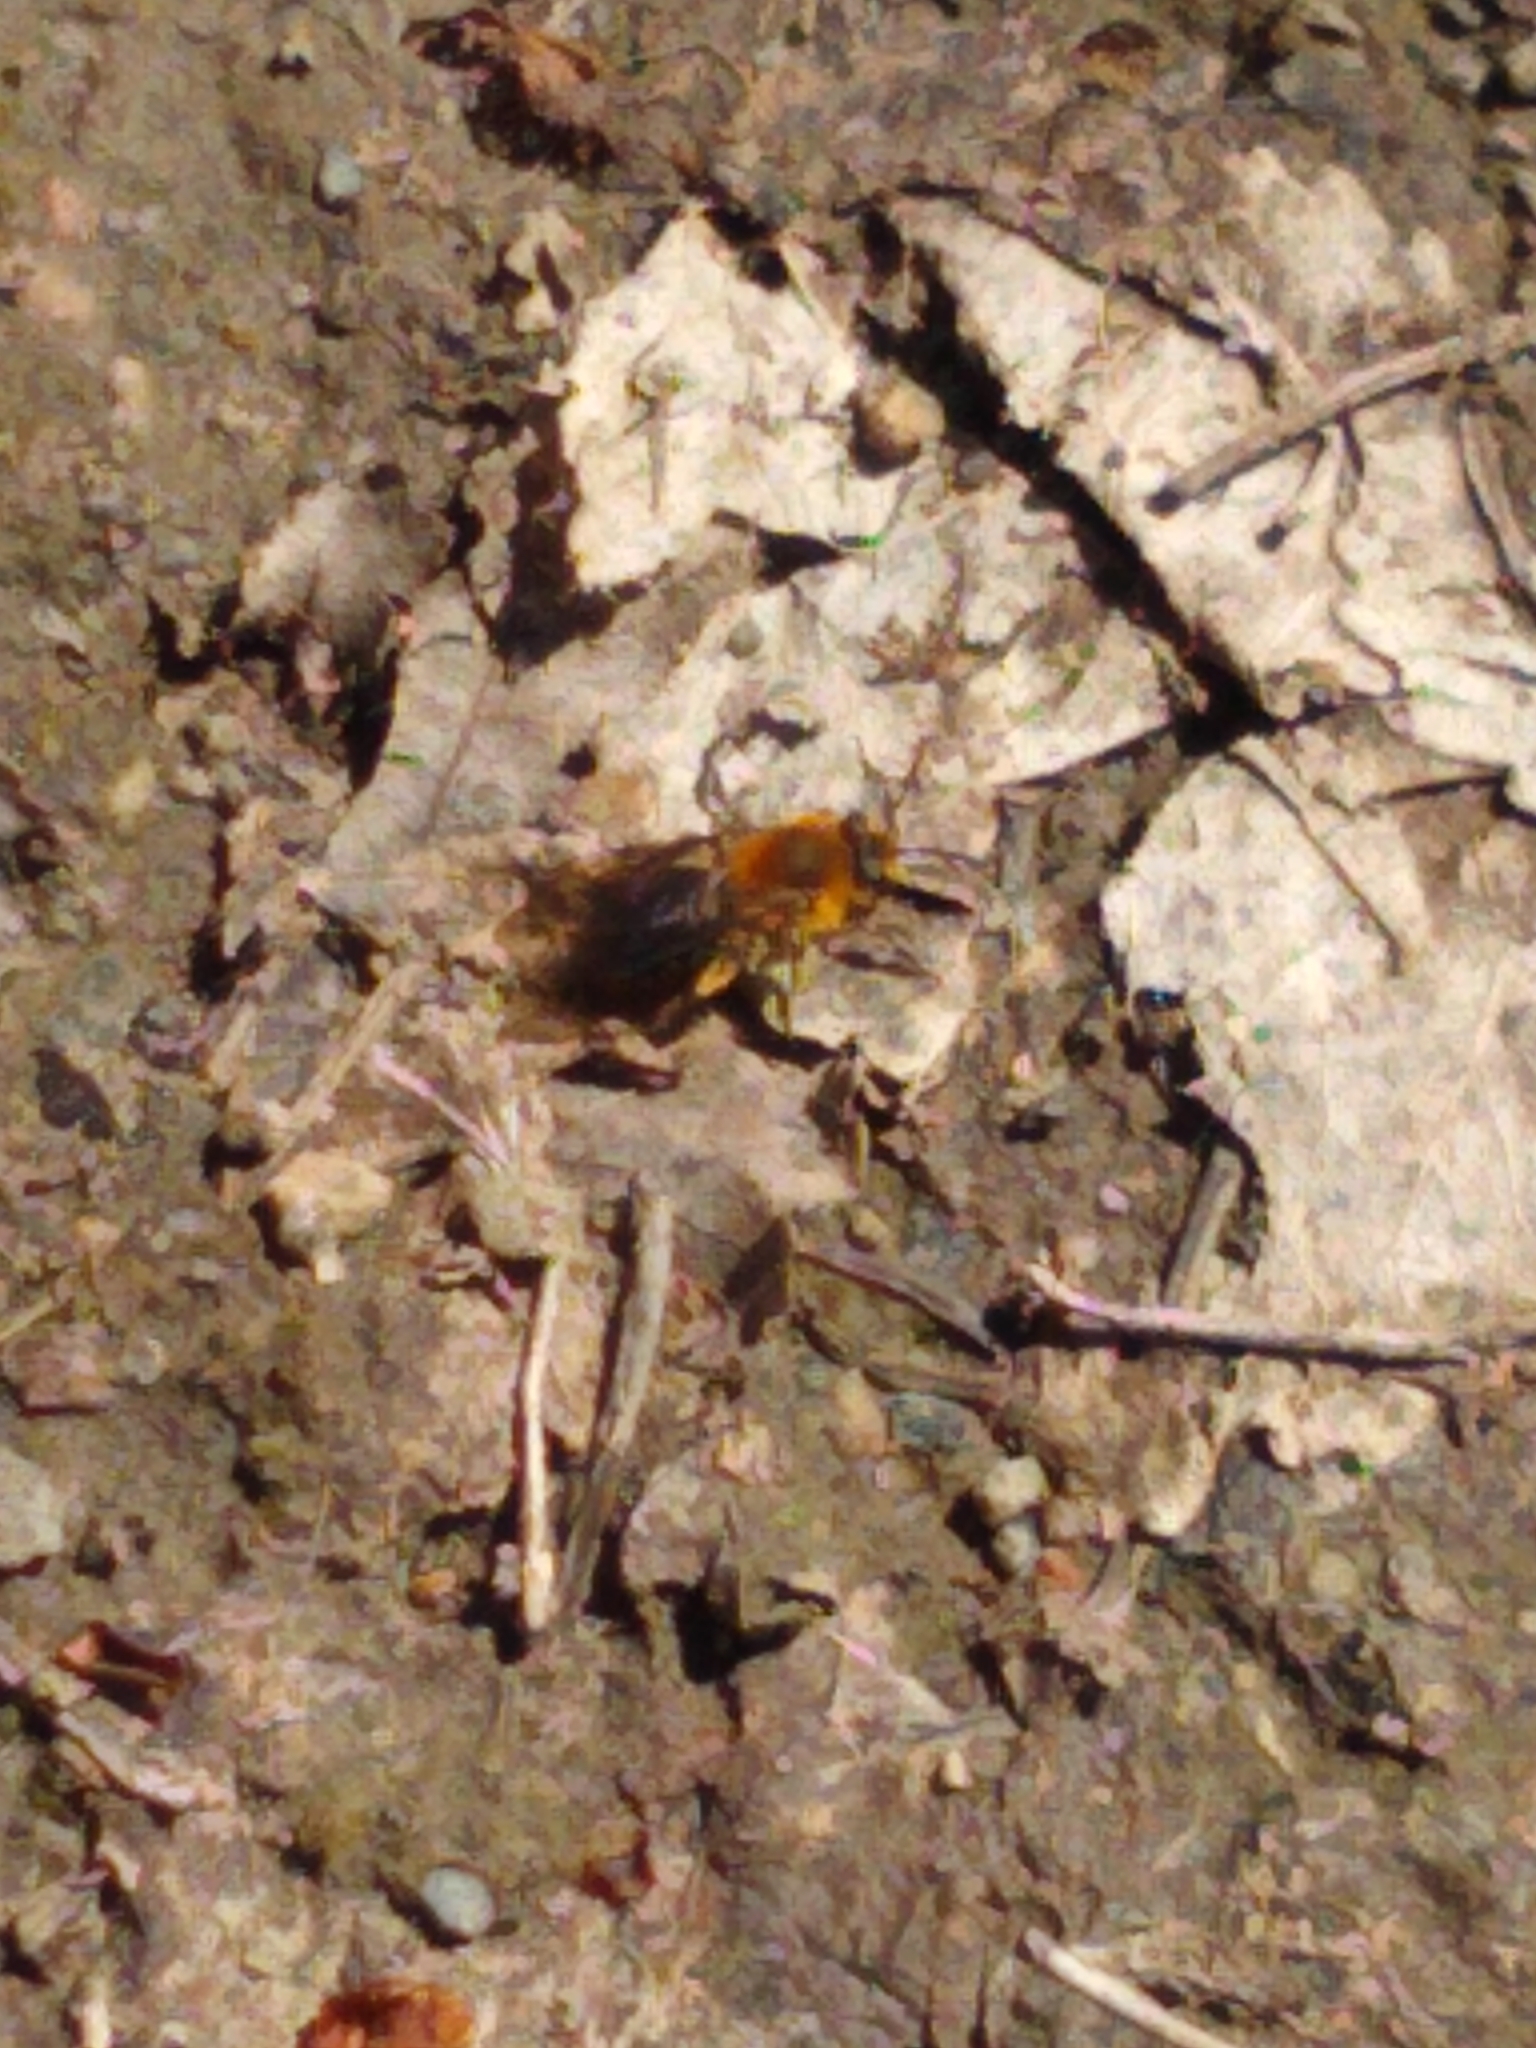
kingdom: Animalia
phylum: Arthropoda
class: Insecta
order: Hymenoptera
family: Andrenidae
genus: Andrena
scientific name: Andrena dunningi
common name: Dunning's miner
